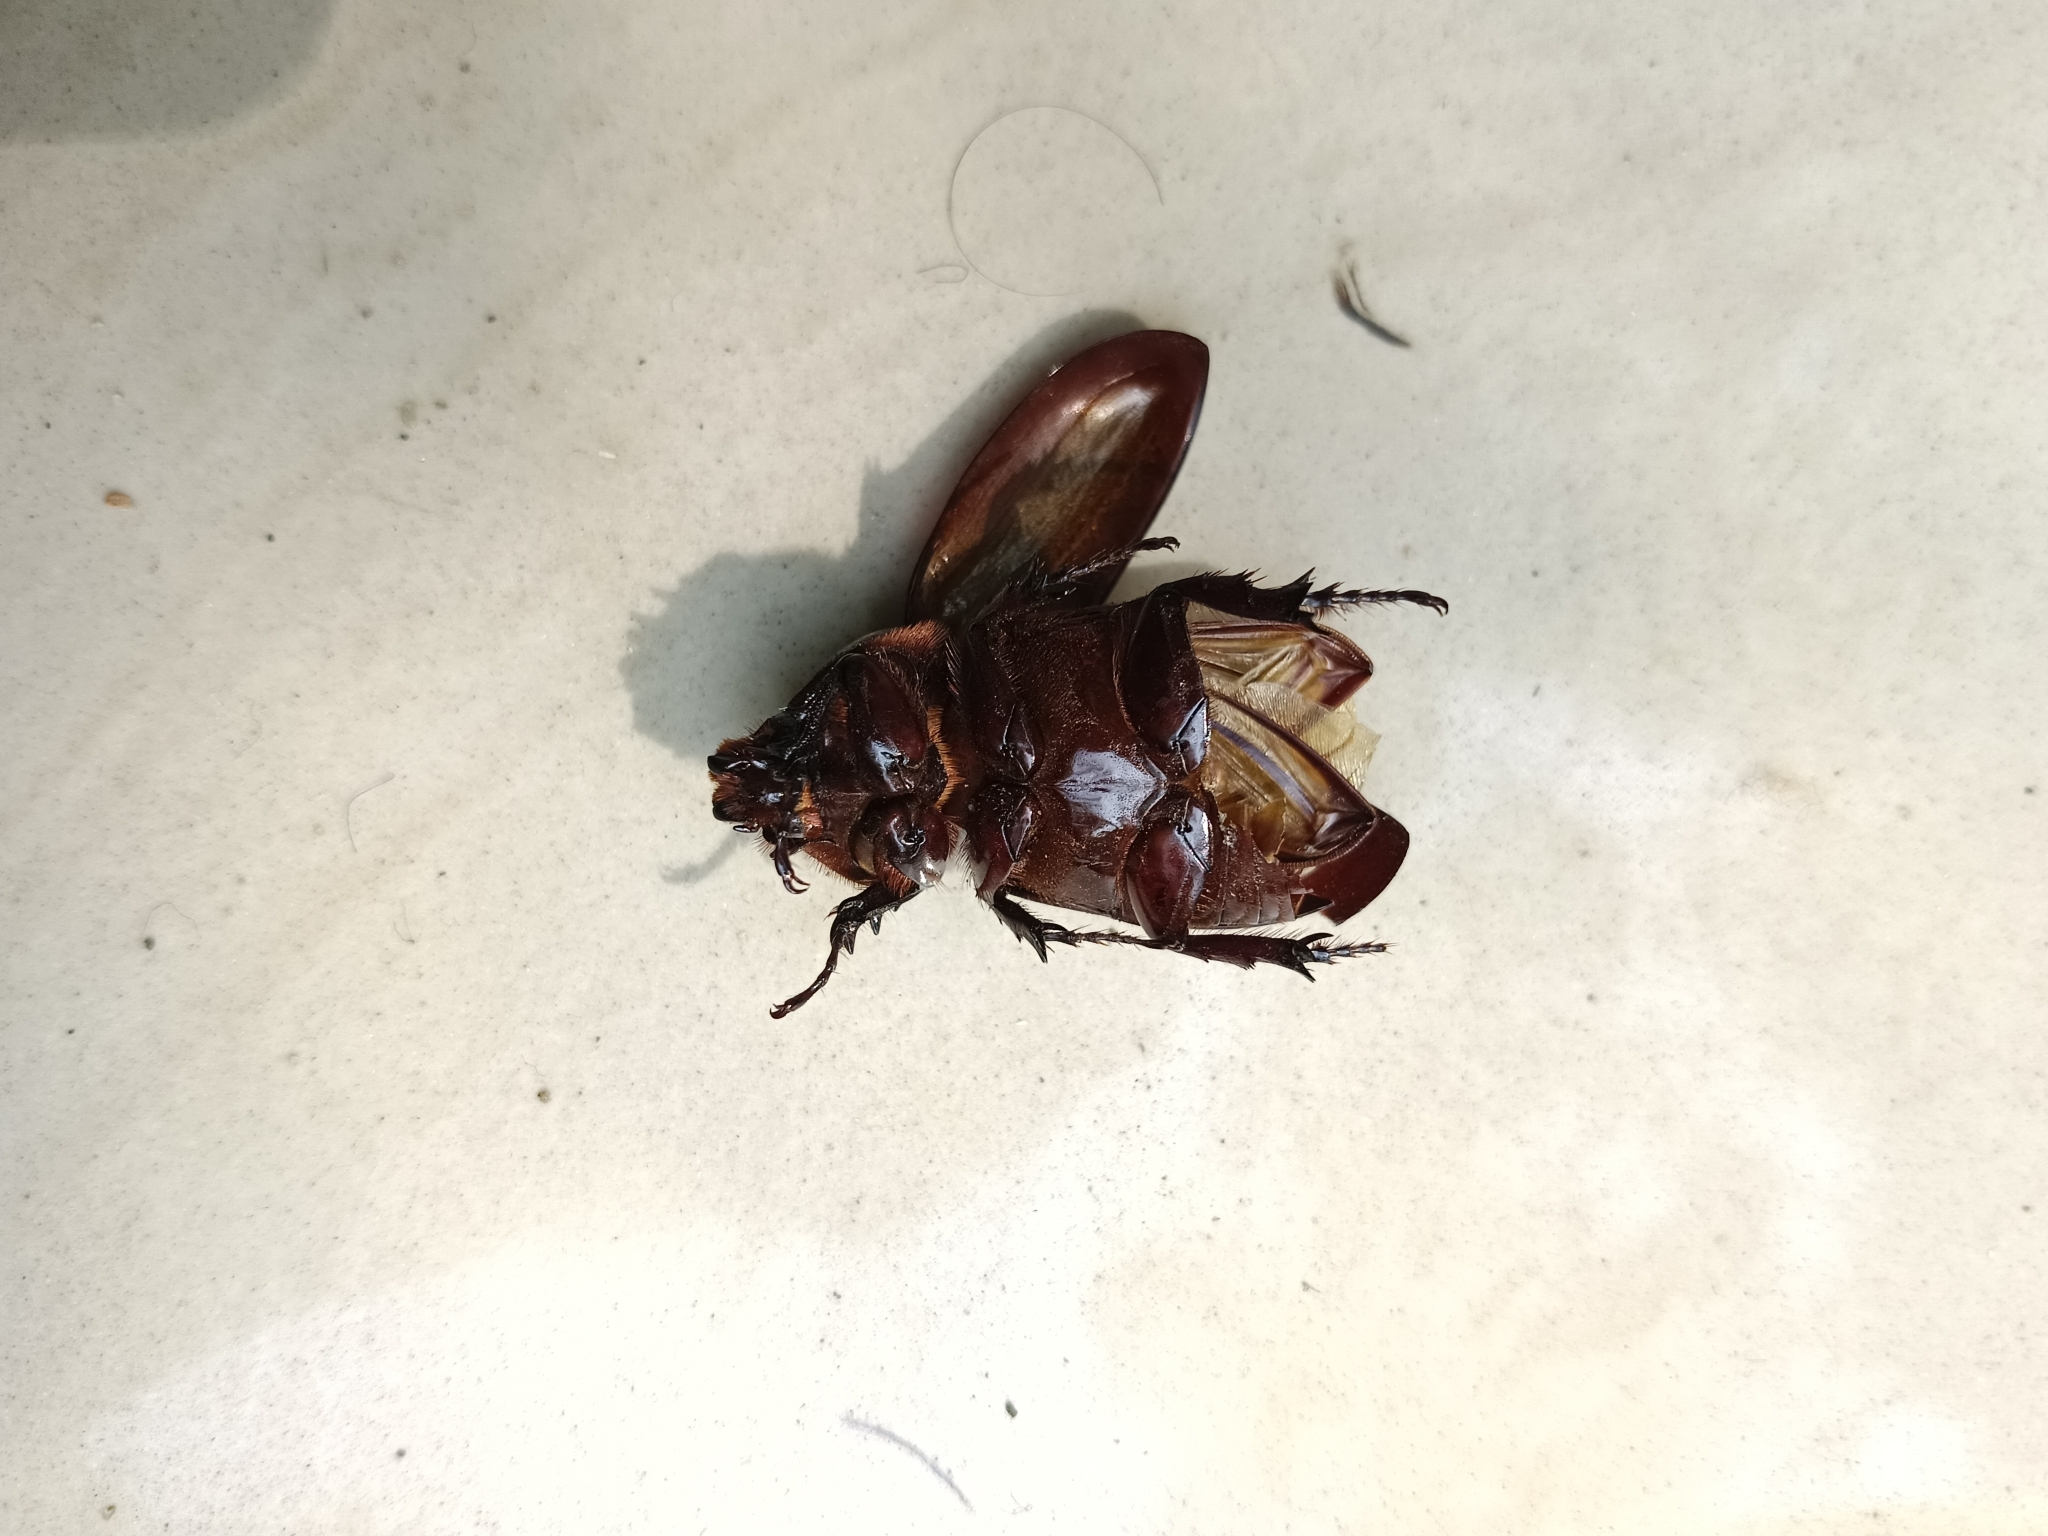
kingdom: Animalia
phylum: Arthropoda
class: Insecta
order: Coleoptera
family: Scarabaeidae
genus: Oryctes
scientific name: Oryctes rhinoceros
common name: Coconut rhinoceros beetle
